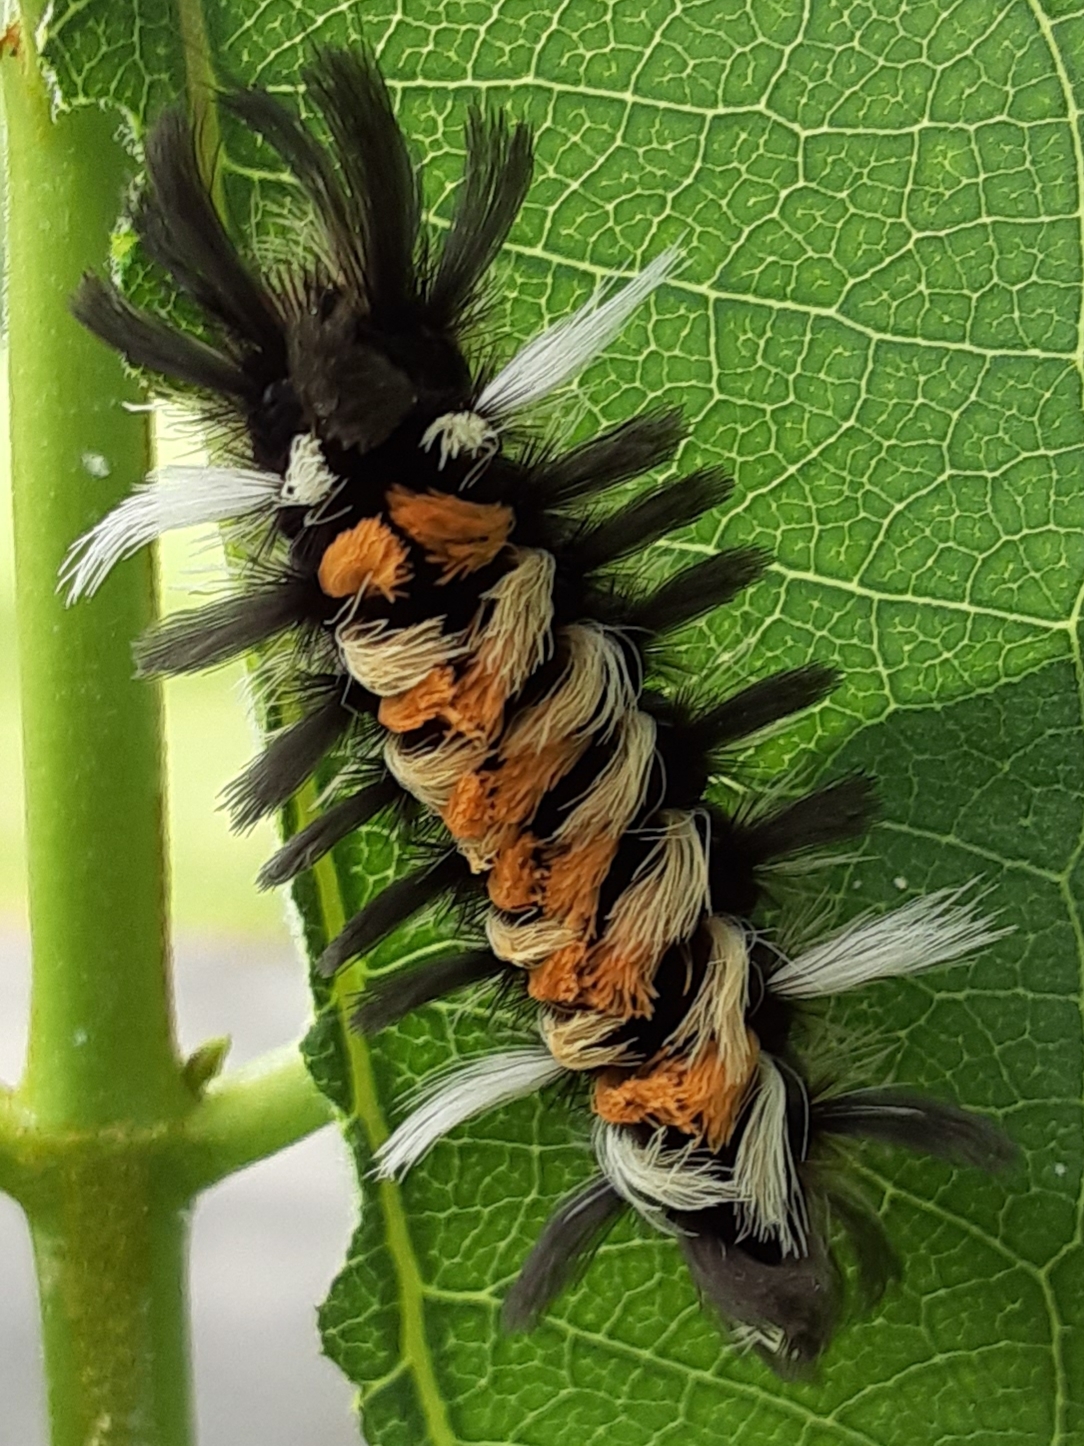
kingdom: Animalia
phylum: Arthropoda
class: Insecta
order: Lepidoptera
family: Erebidae
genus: Euchaetes
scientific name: Euchaetes egle
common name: Milkweed tussock moth
